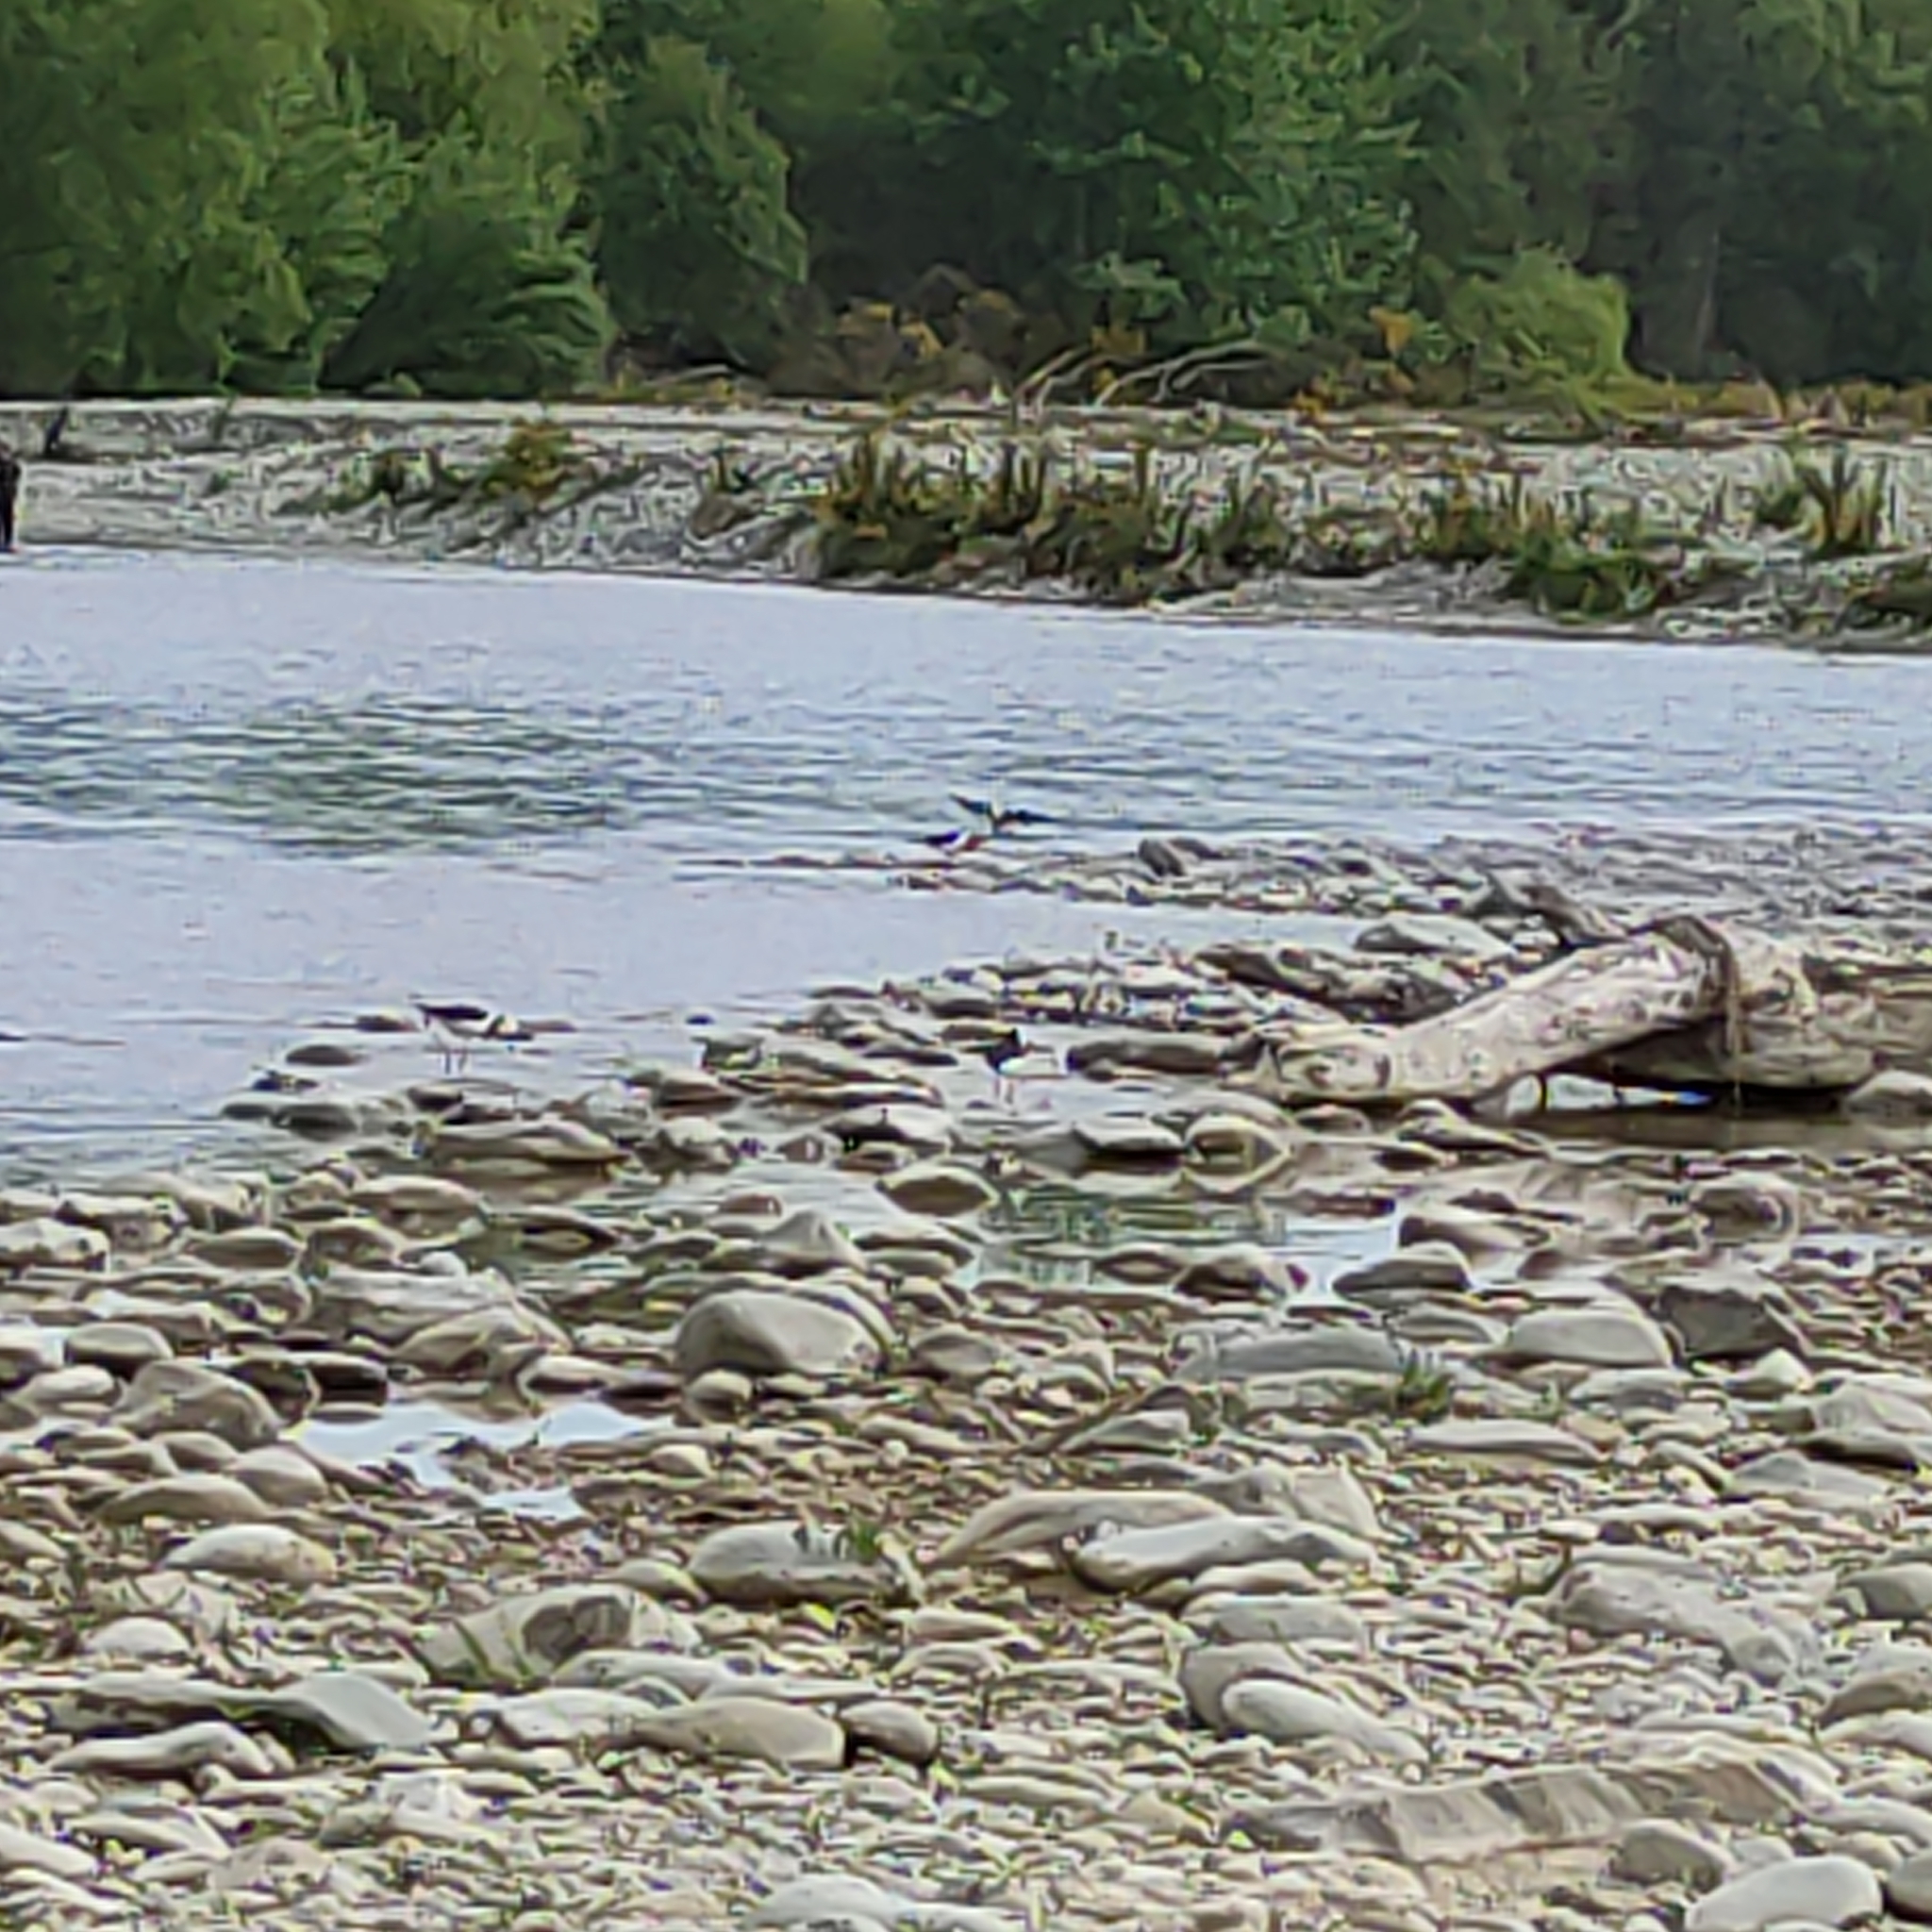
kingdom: Animalia
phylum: Chordata
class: Aves
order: Charadriiformes
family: Recurvirostridae
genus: Himantopus
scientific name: Himantopus leucocephalus
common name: White-headed stilt
